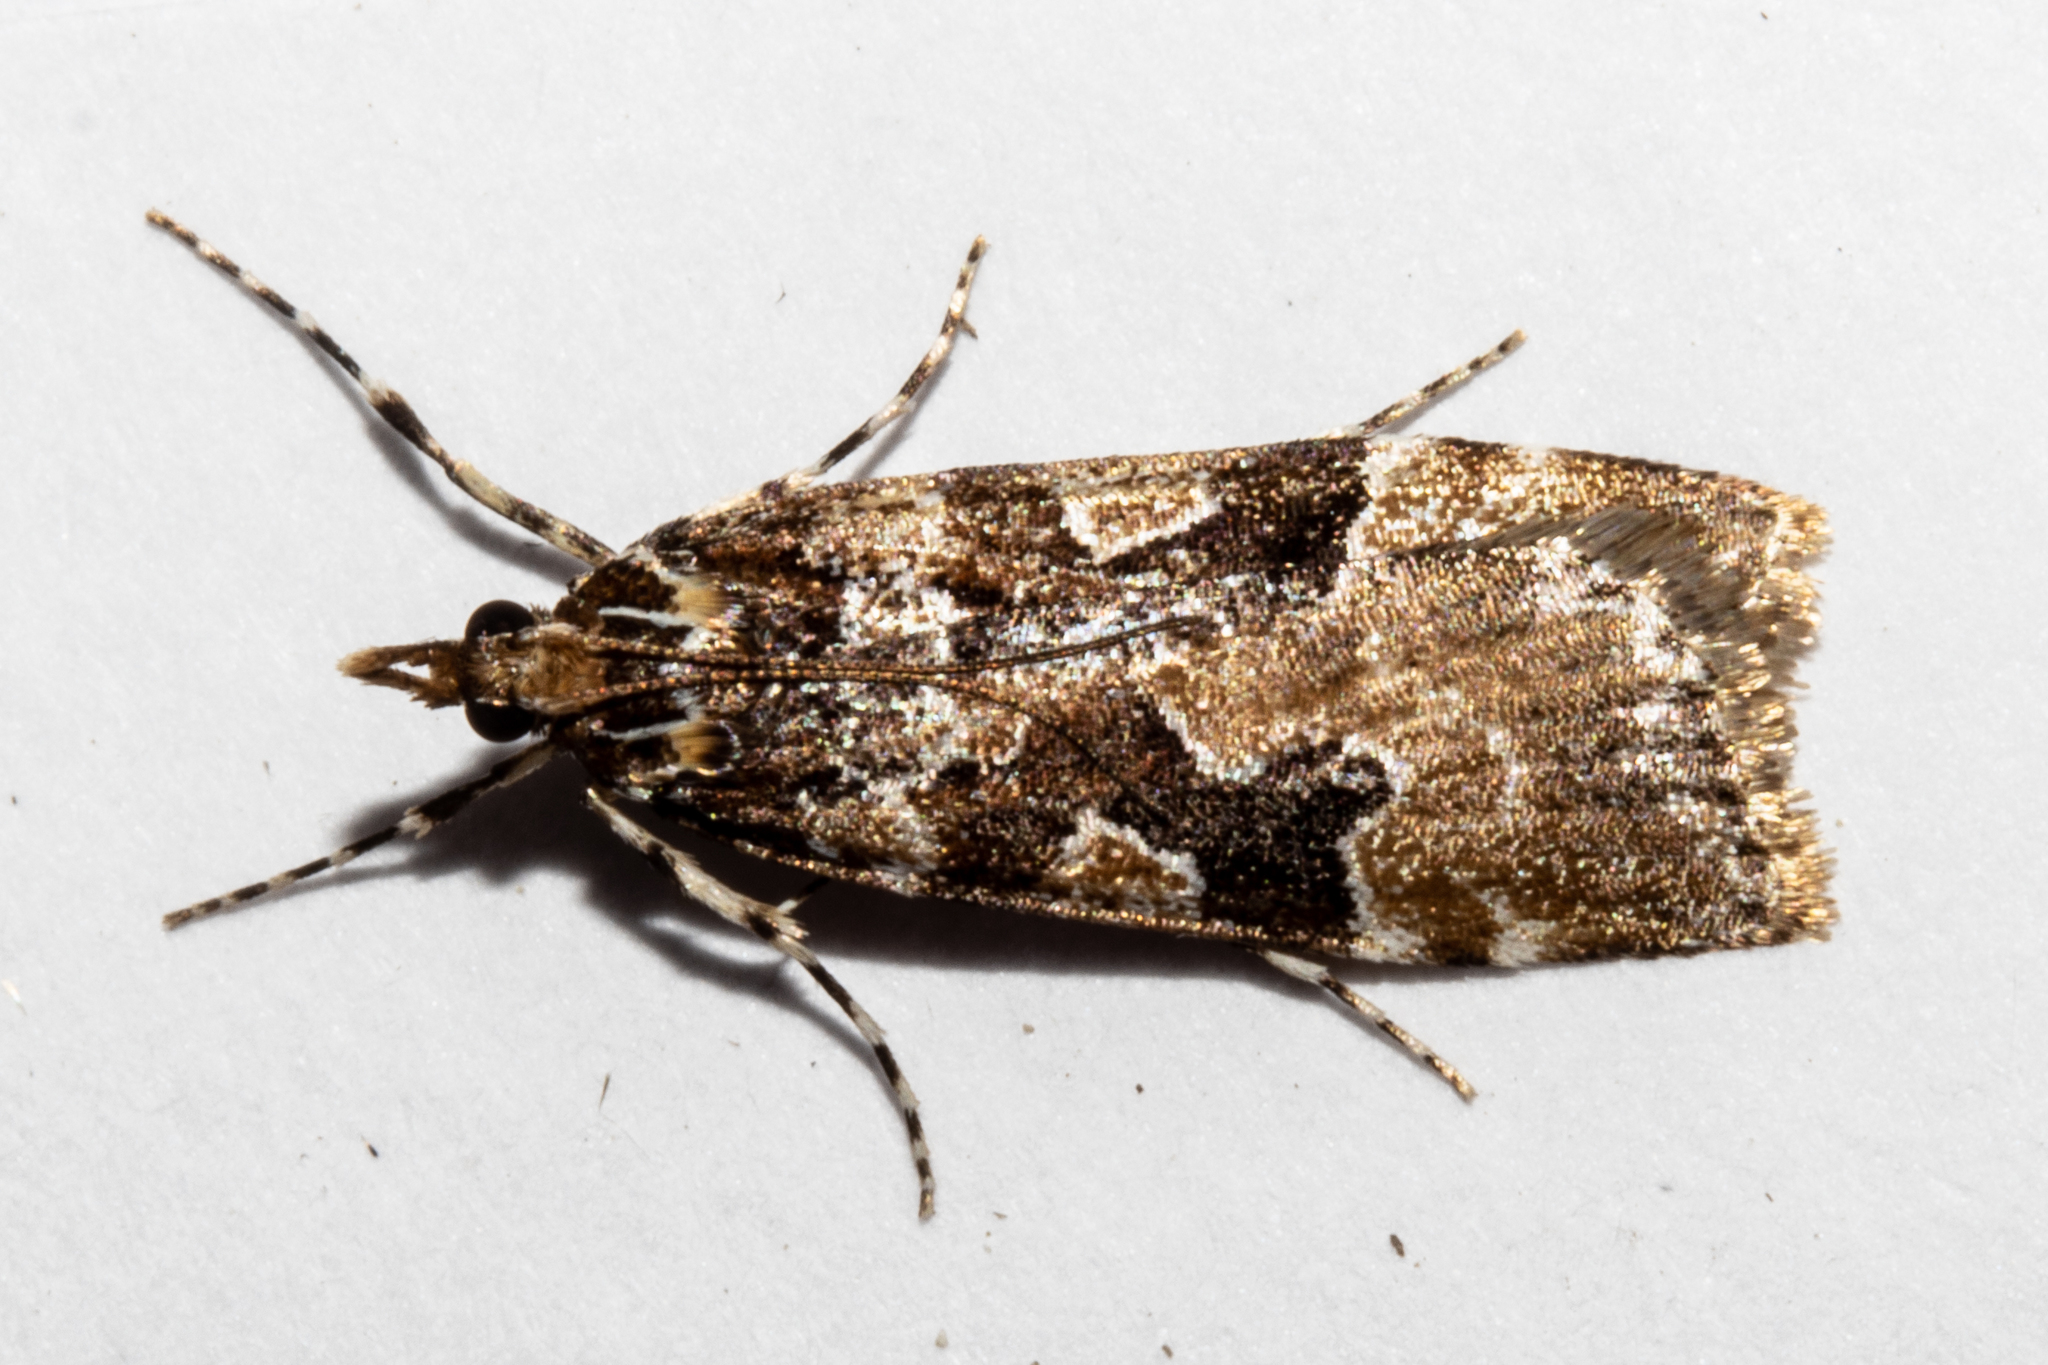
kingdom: Animalia
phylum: Arthropoda
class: Insecta
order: Lepidoptera
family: Crambidae
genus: Scoparia
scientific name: Scoparia ustimacula
